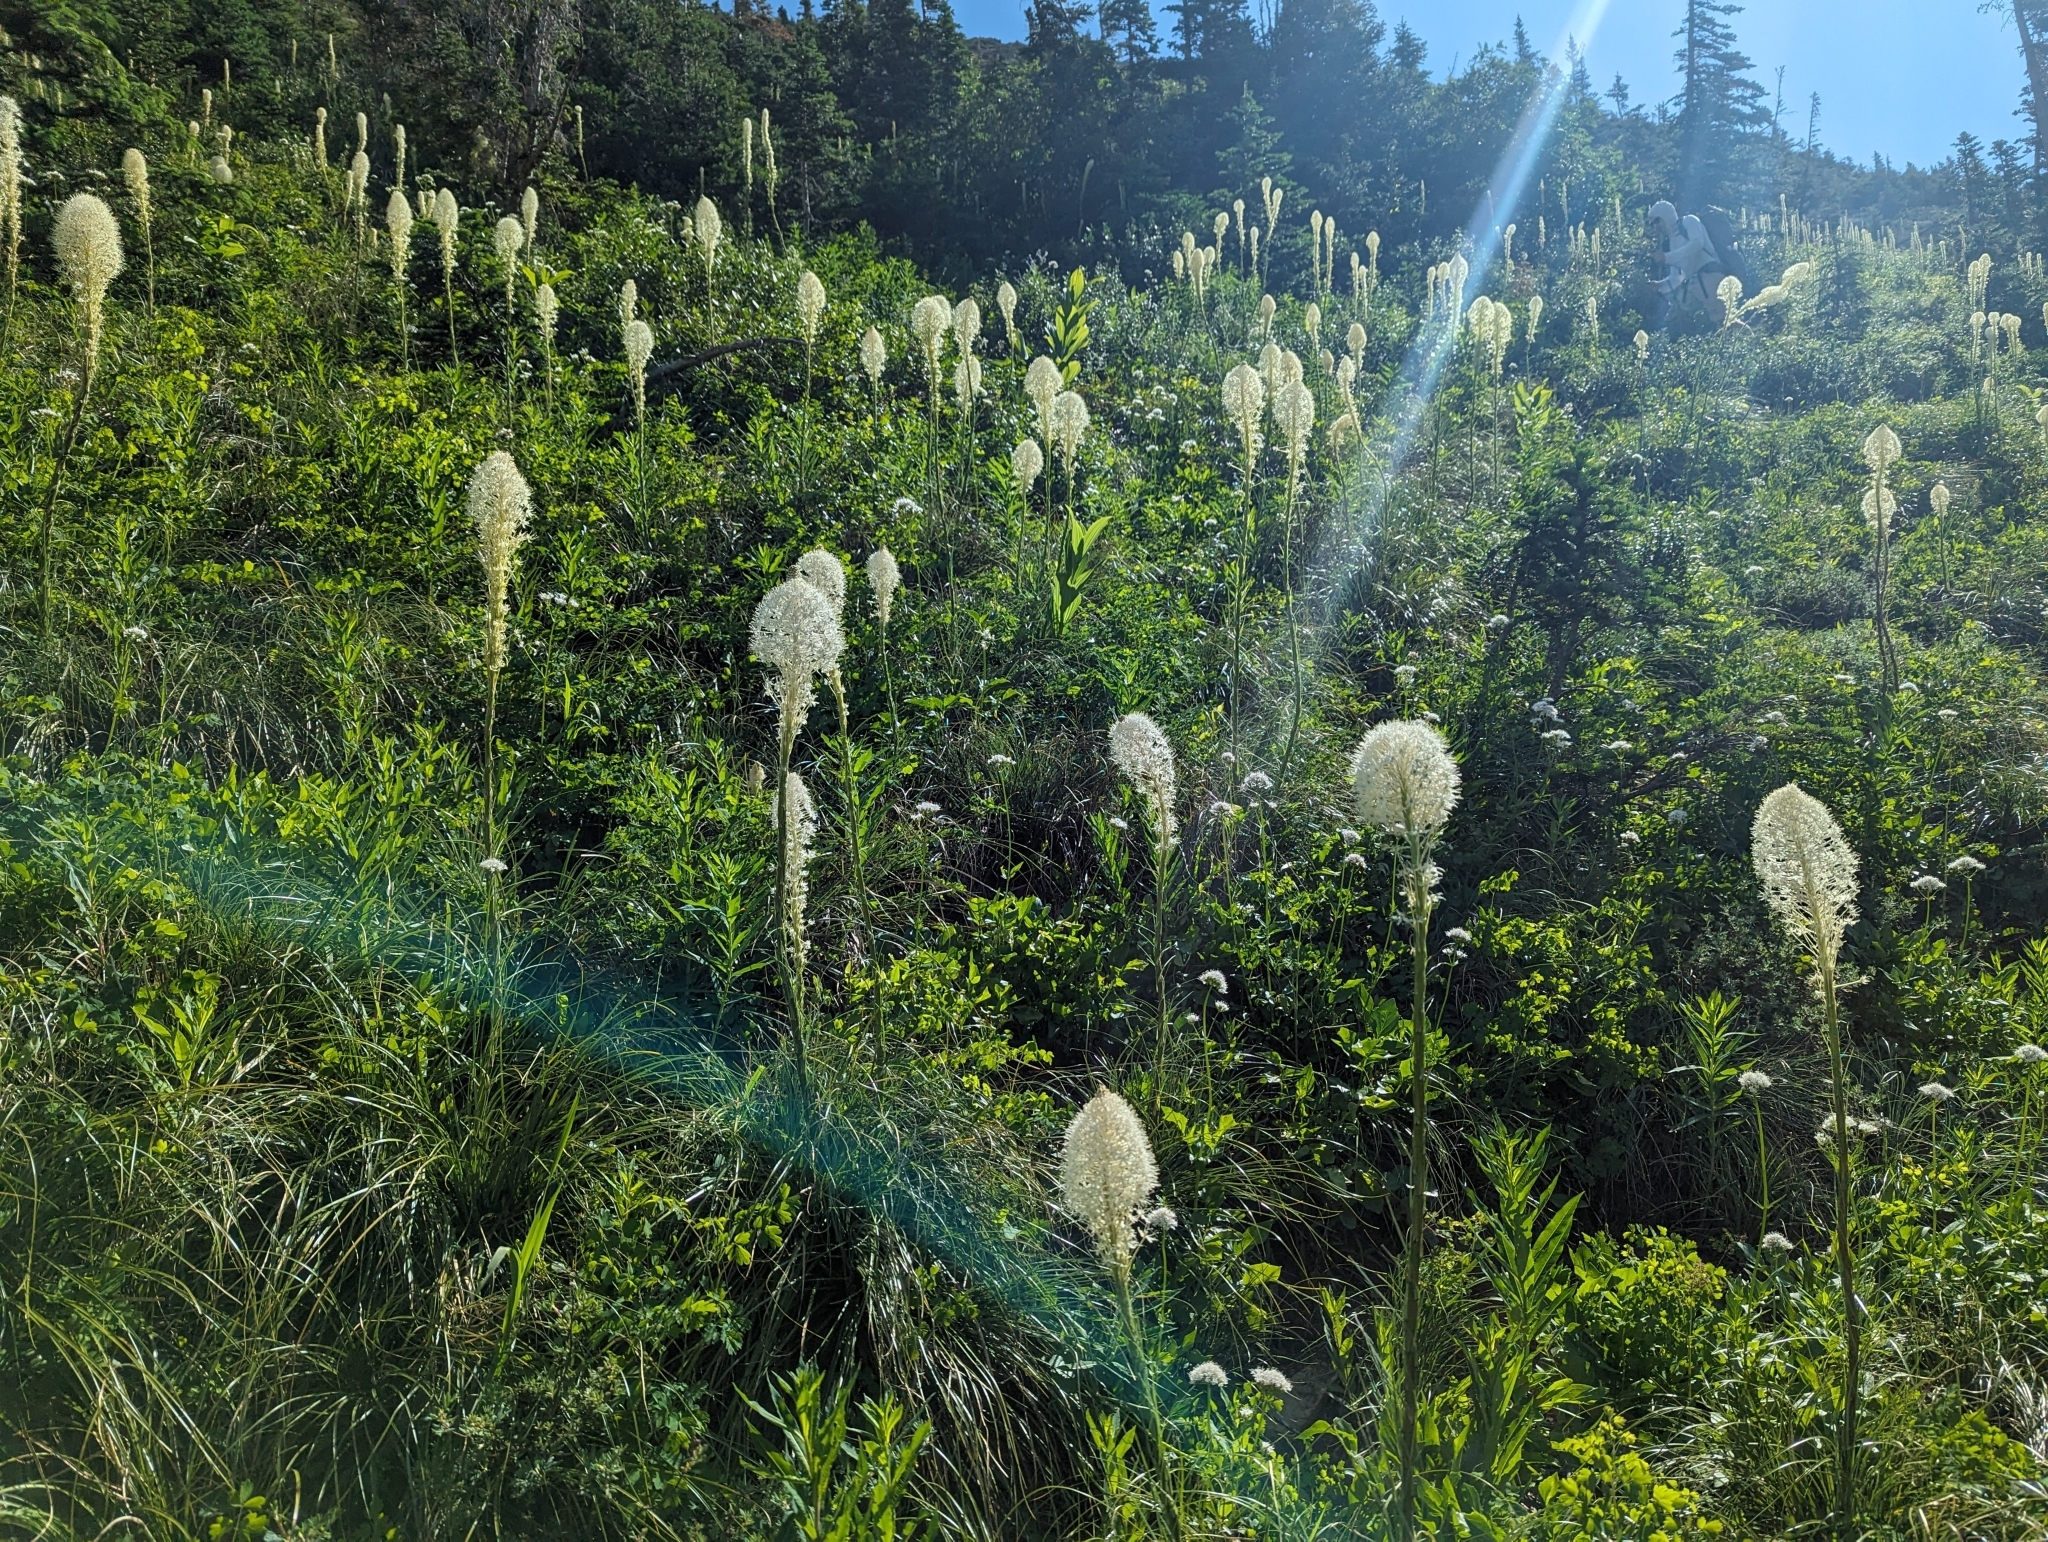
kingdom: Plantae
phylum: Tracheophyta
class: Liliopsida
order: Liliales
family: Melanthiaceae
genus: Xerophyllum
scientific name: Xerophyllum tenax
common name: Bear-grass
